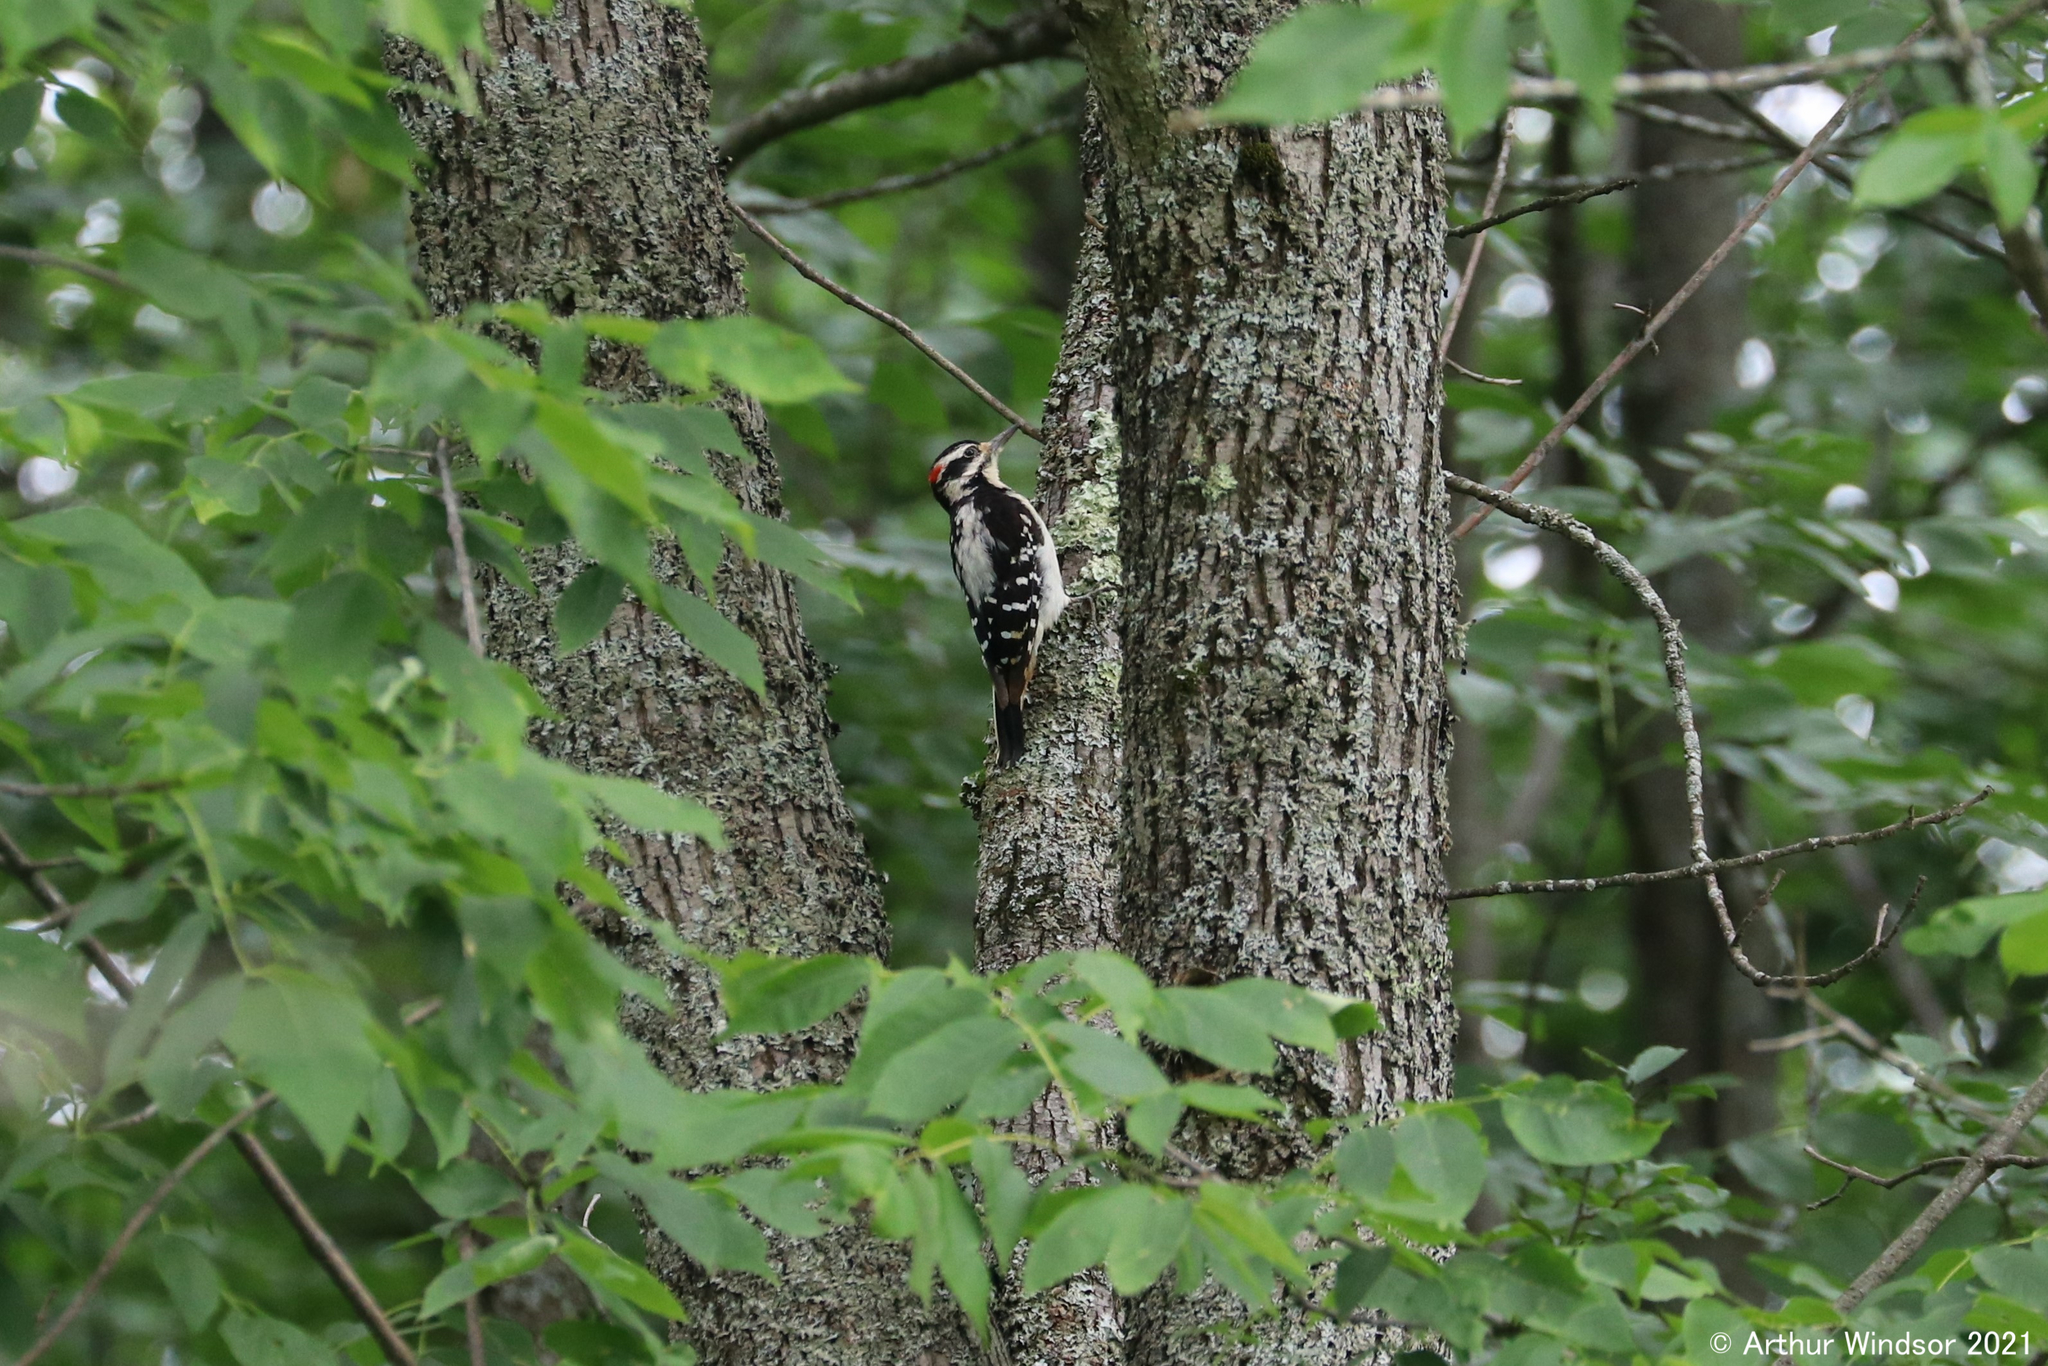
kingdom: Animalia
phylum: Chordata
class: Aves
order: Piciformes
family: Picidae
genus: Leuconotopicus
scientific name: Leuconotopicus villosus
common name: Hairy woodpecker
